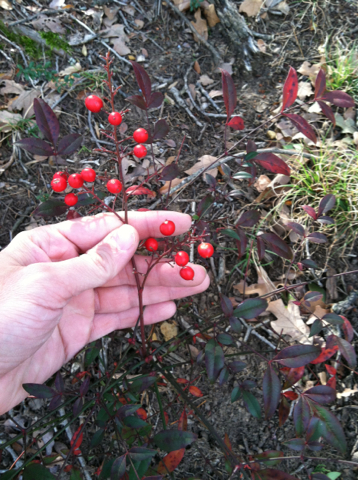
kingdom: Plantae
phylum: Tracheophyta
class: Magnoliopsida
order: Ranunculales
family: Berberidaceae
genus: Nandina
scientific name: Nandina domestica
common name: Sacred bamboo
